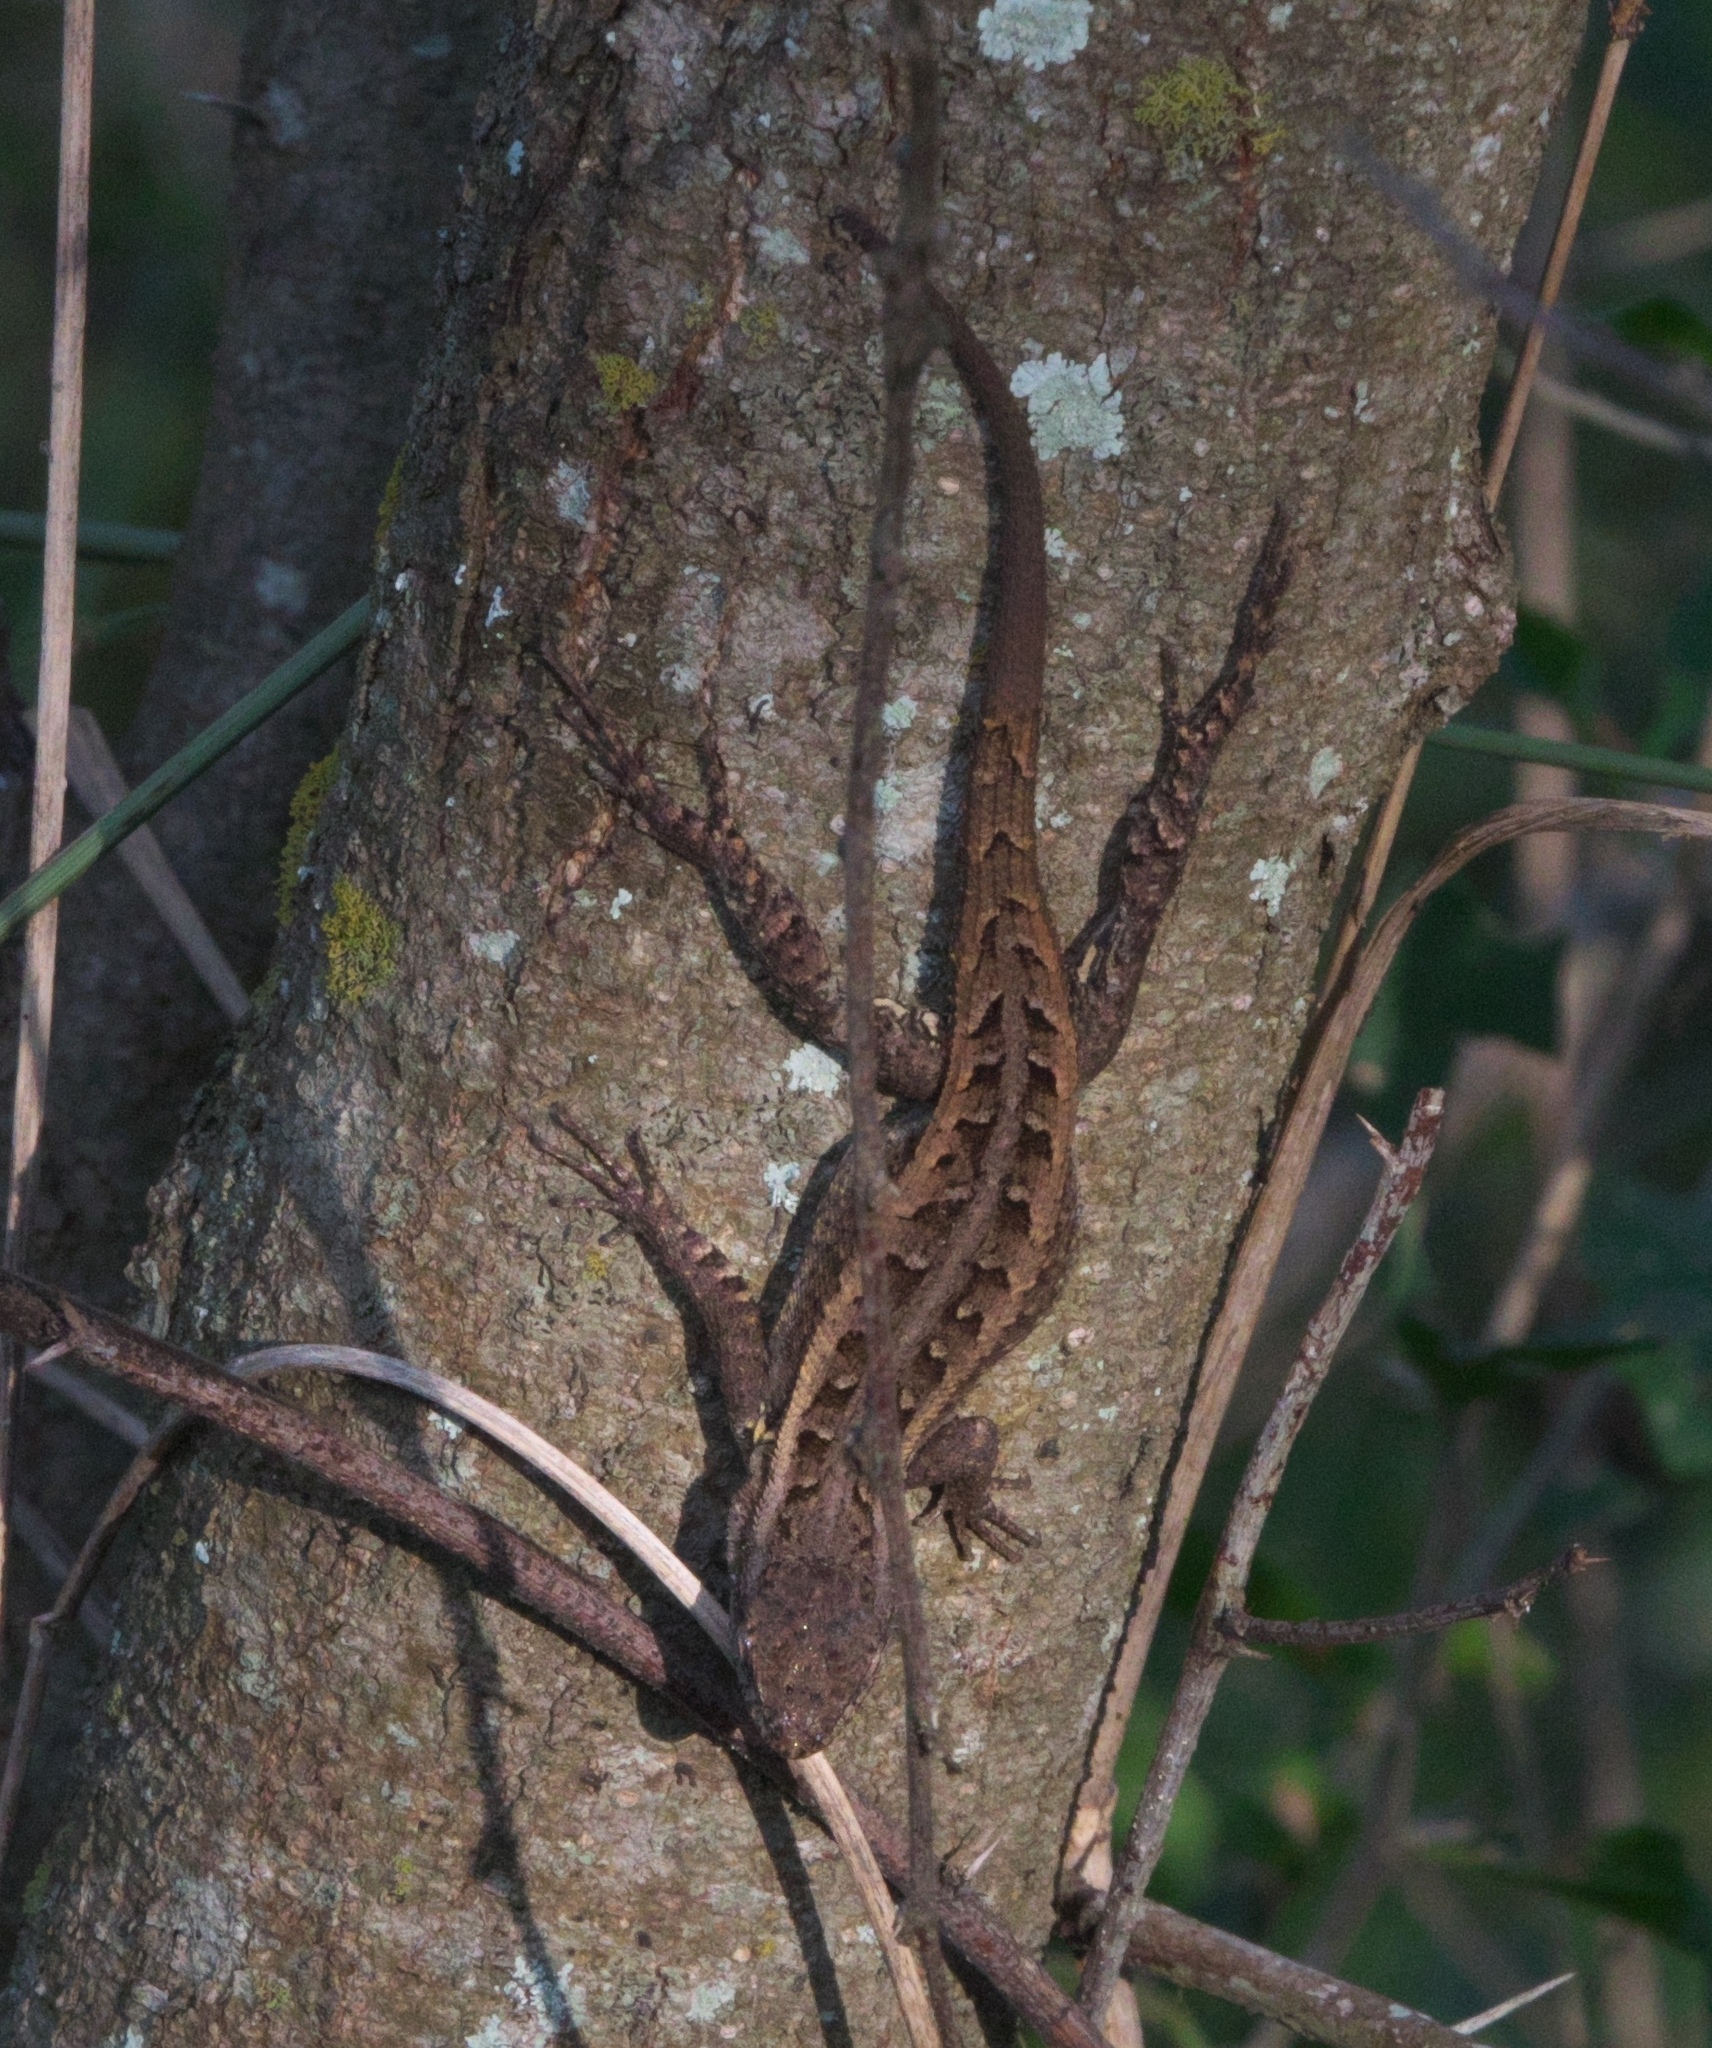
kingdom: Animalia
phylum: Chordata
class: Squamata
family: Phrynosomatidae
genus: Sceloporus
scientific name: Sceloporus variabilis
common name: Rosebelly lizard
